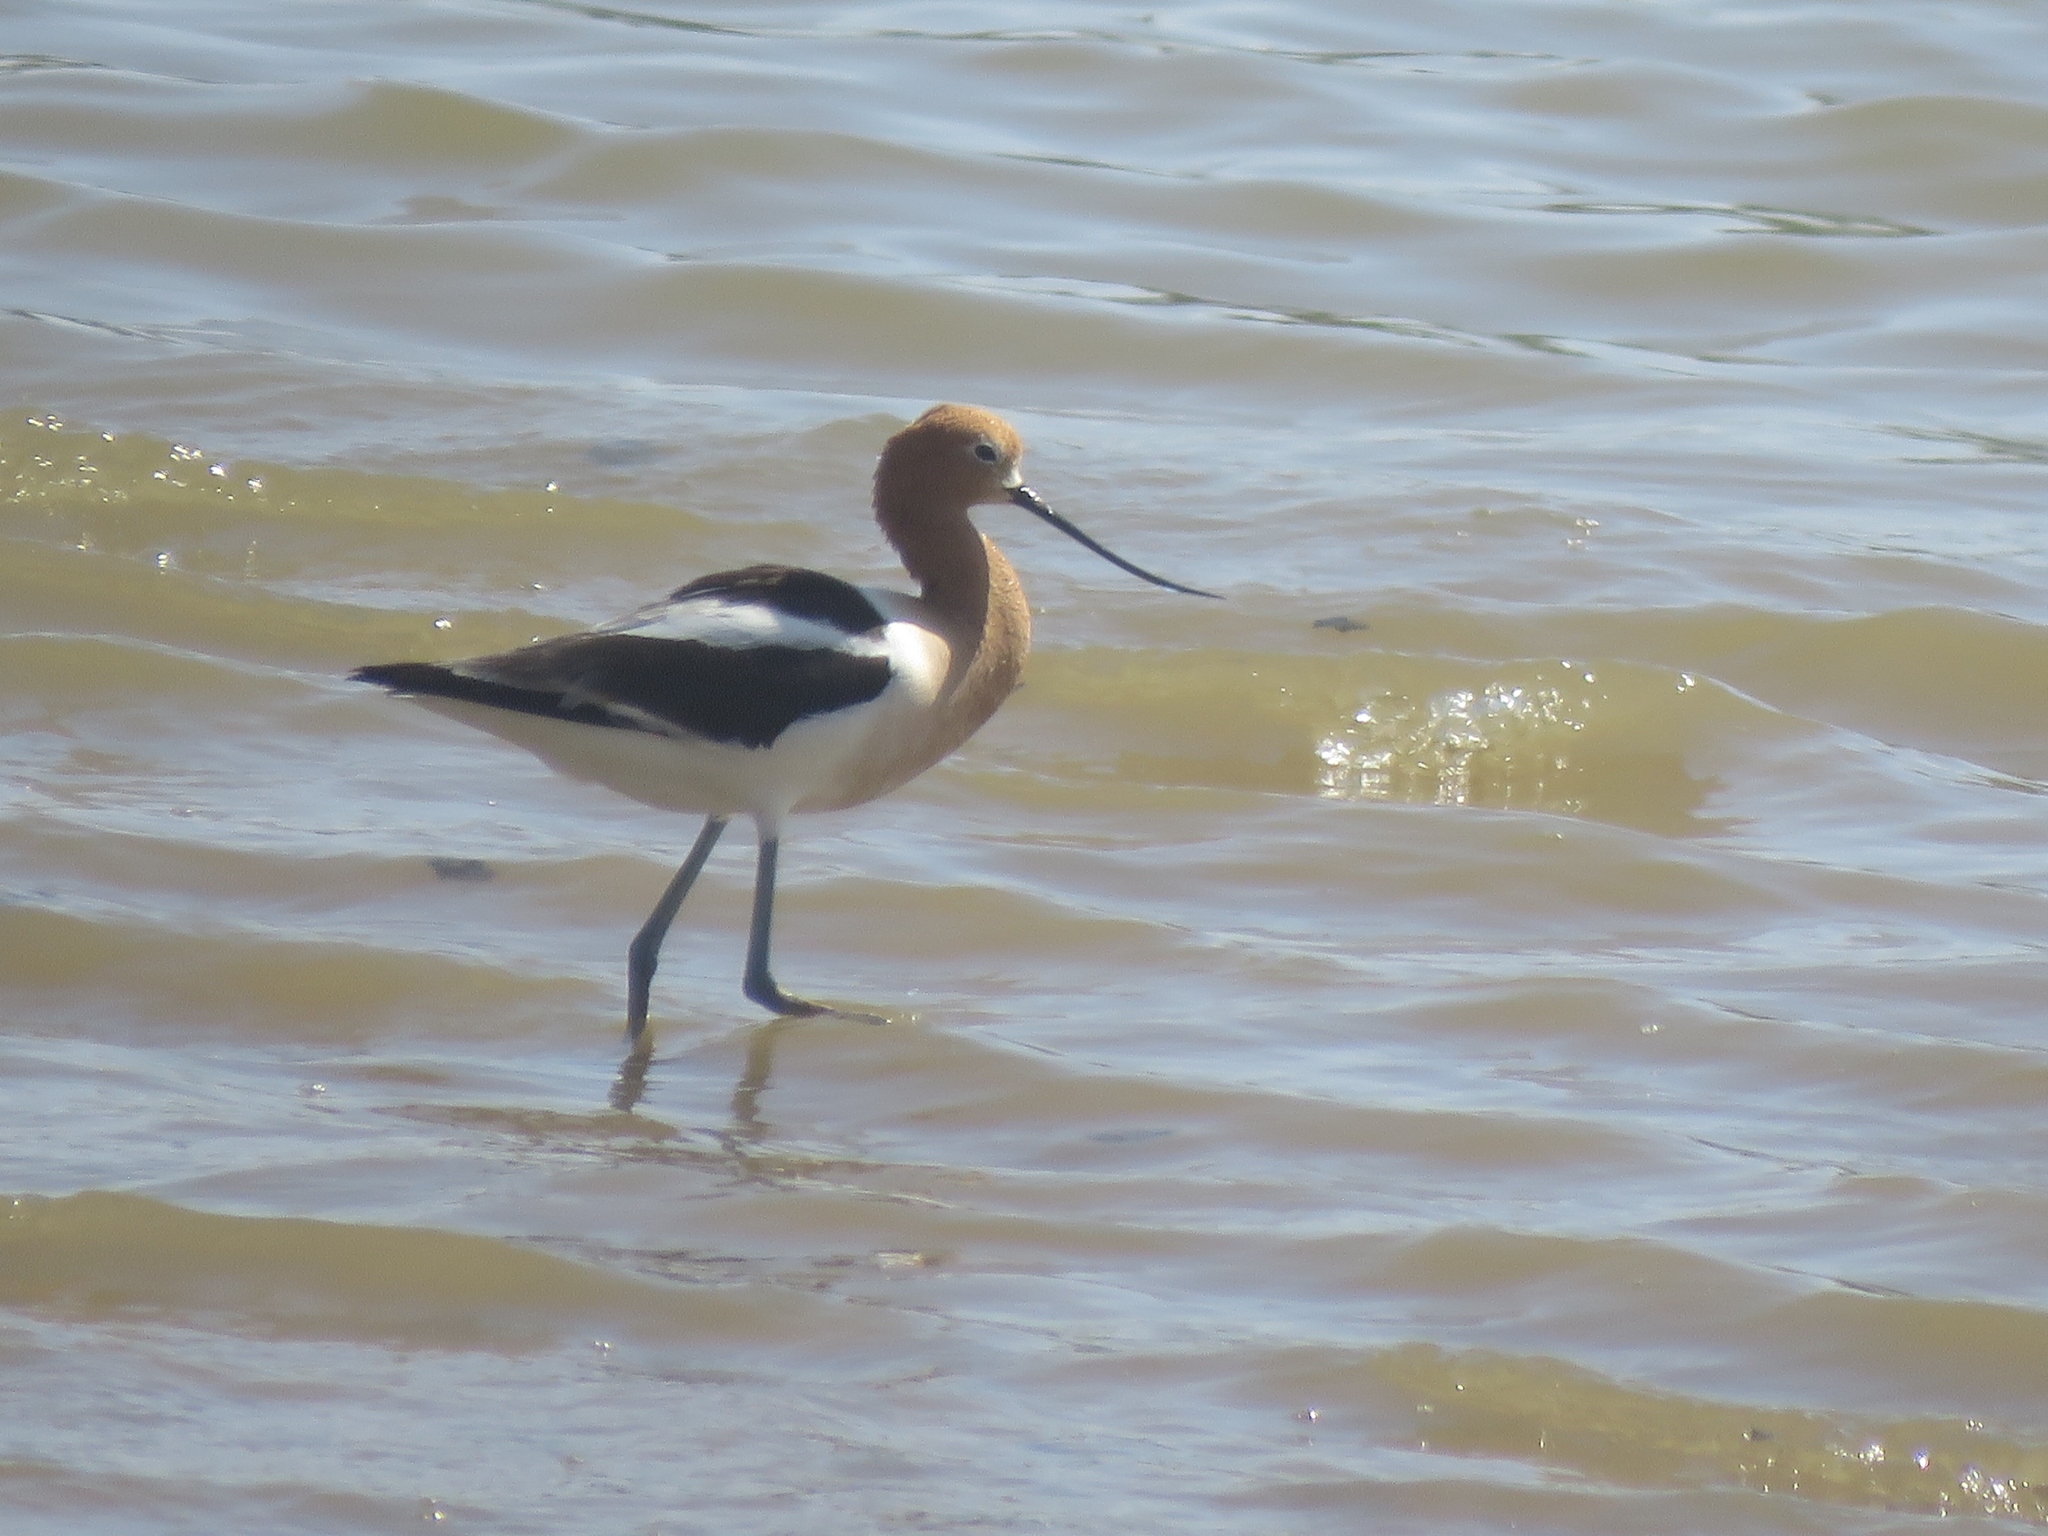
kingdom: Animalia
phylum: Chordata
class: Aves
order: Charadriiformes
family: Recurvirostridae
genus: Recurvirostra
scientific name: Recurvirostra americana
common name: American avocet
